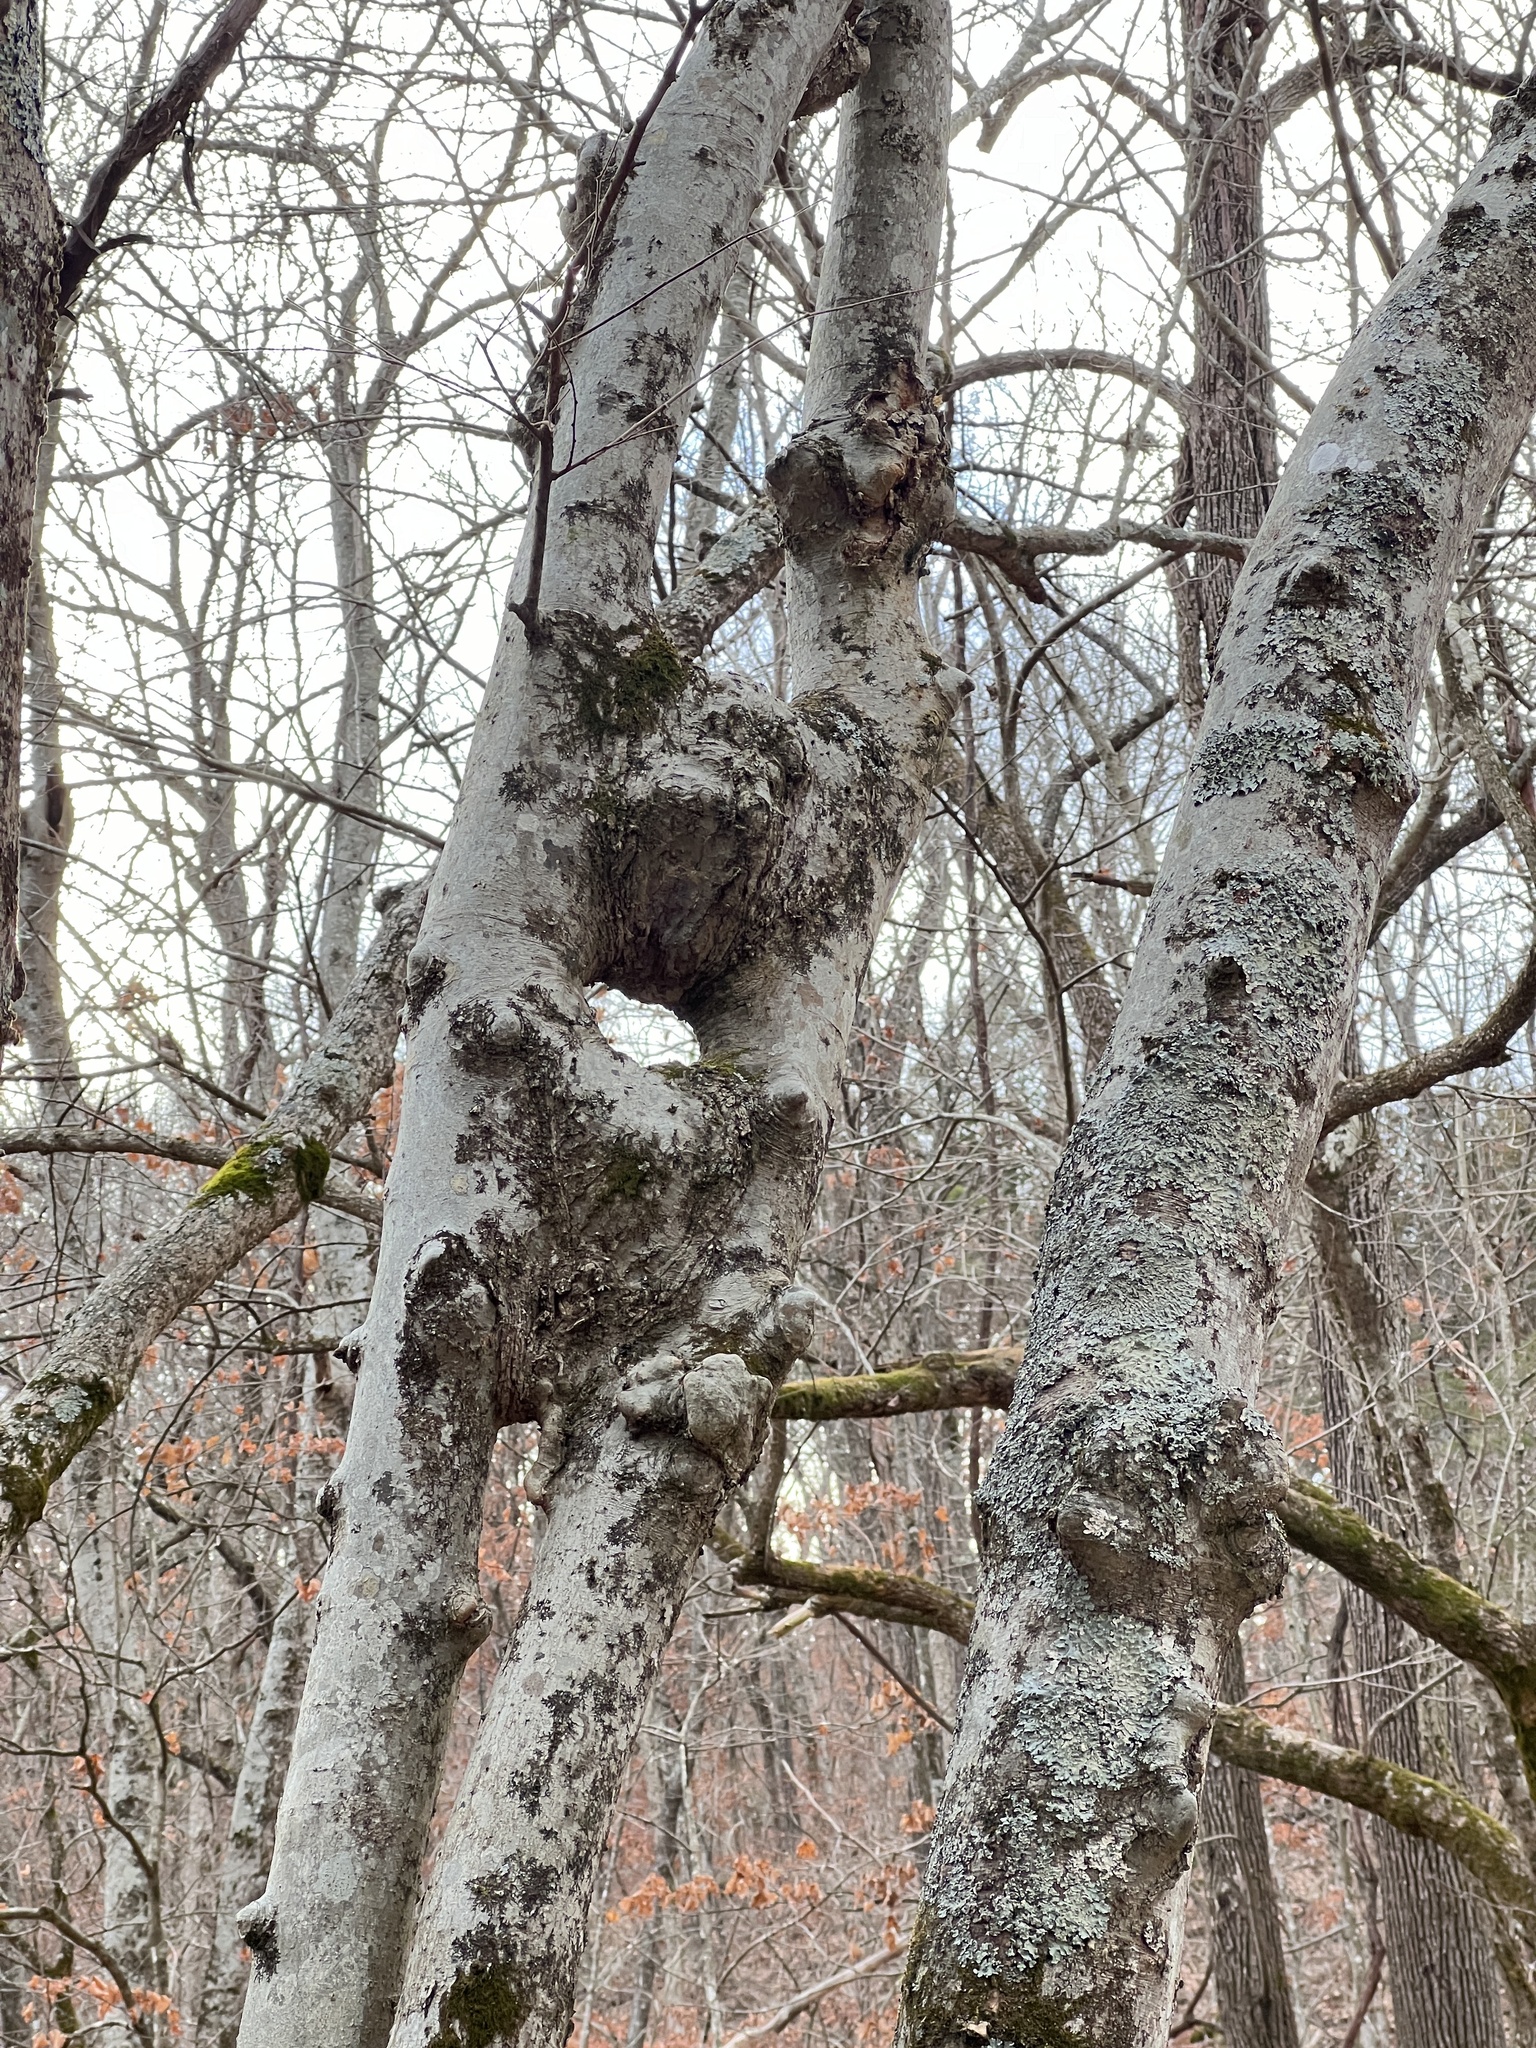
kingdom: Plantae
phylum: Tracheophyta
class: Magnoliopsida
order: Rosales
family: Cannabaceae
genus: Celtis
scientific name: Celtis laevigata
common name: Sugarberry
